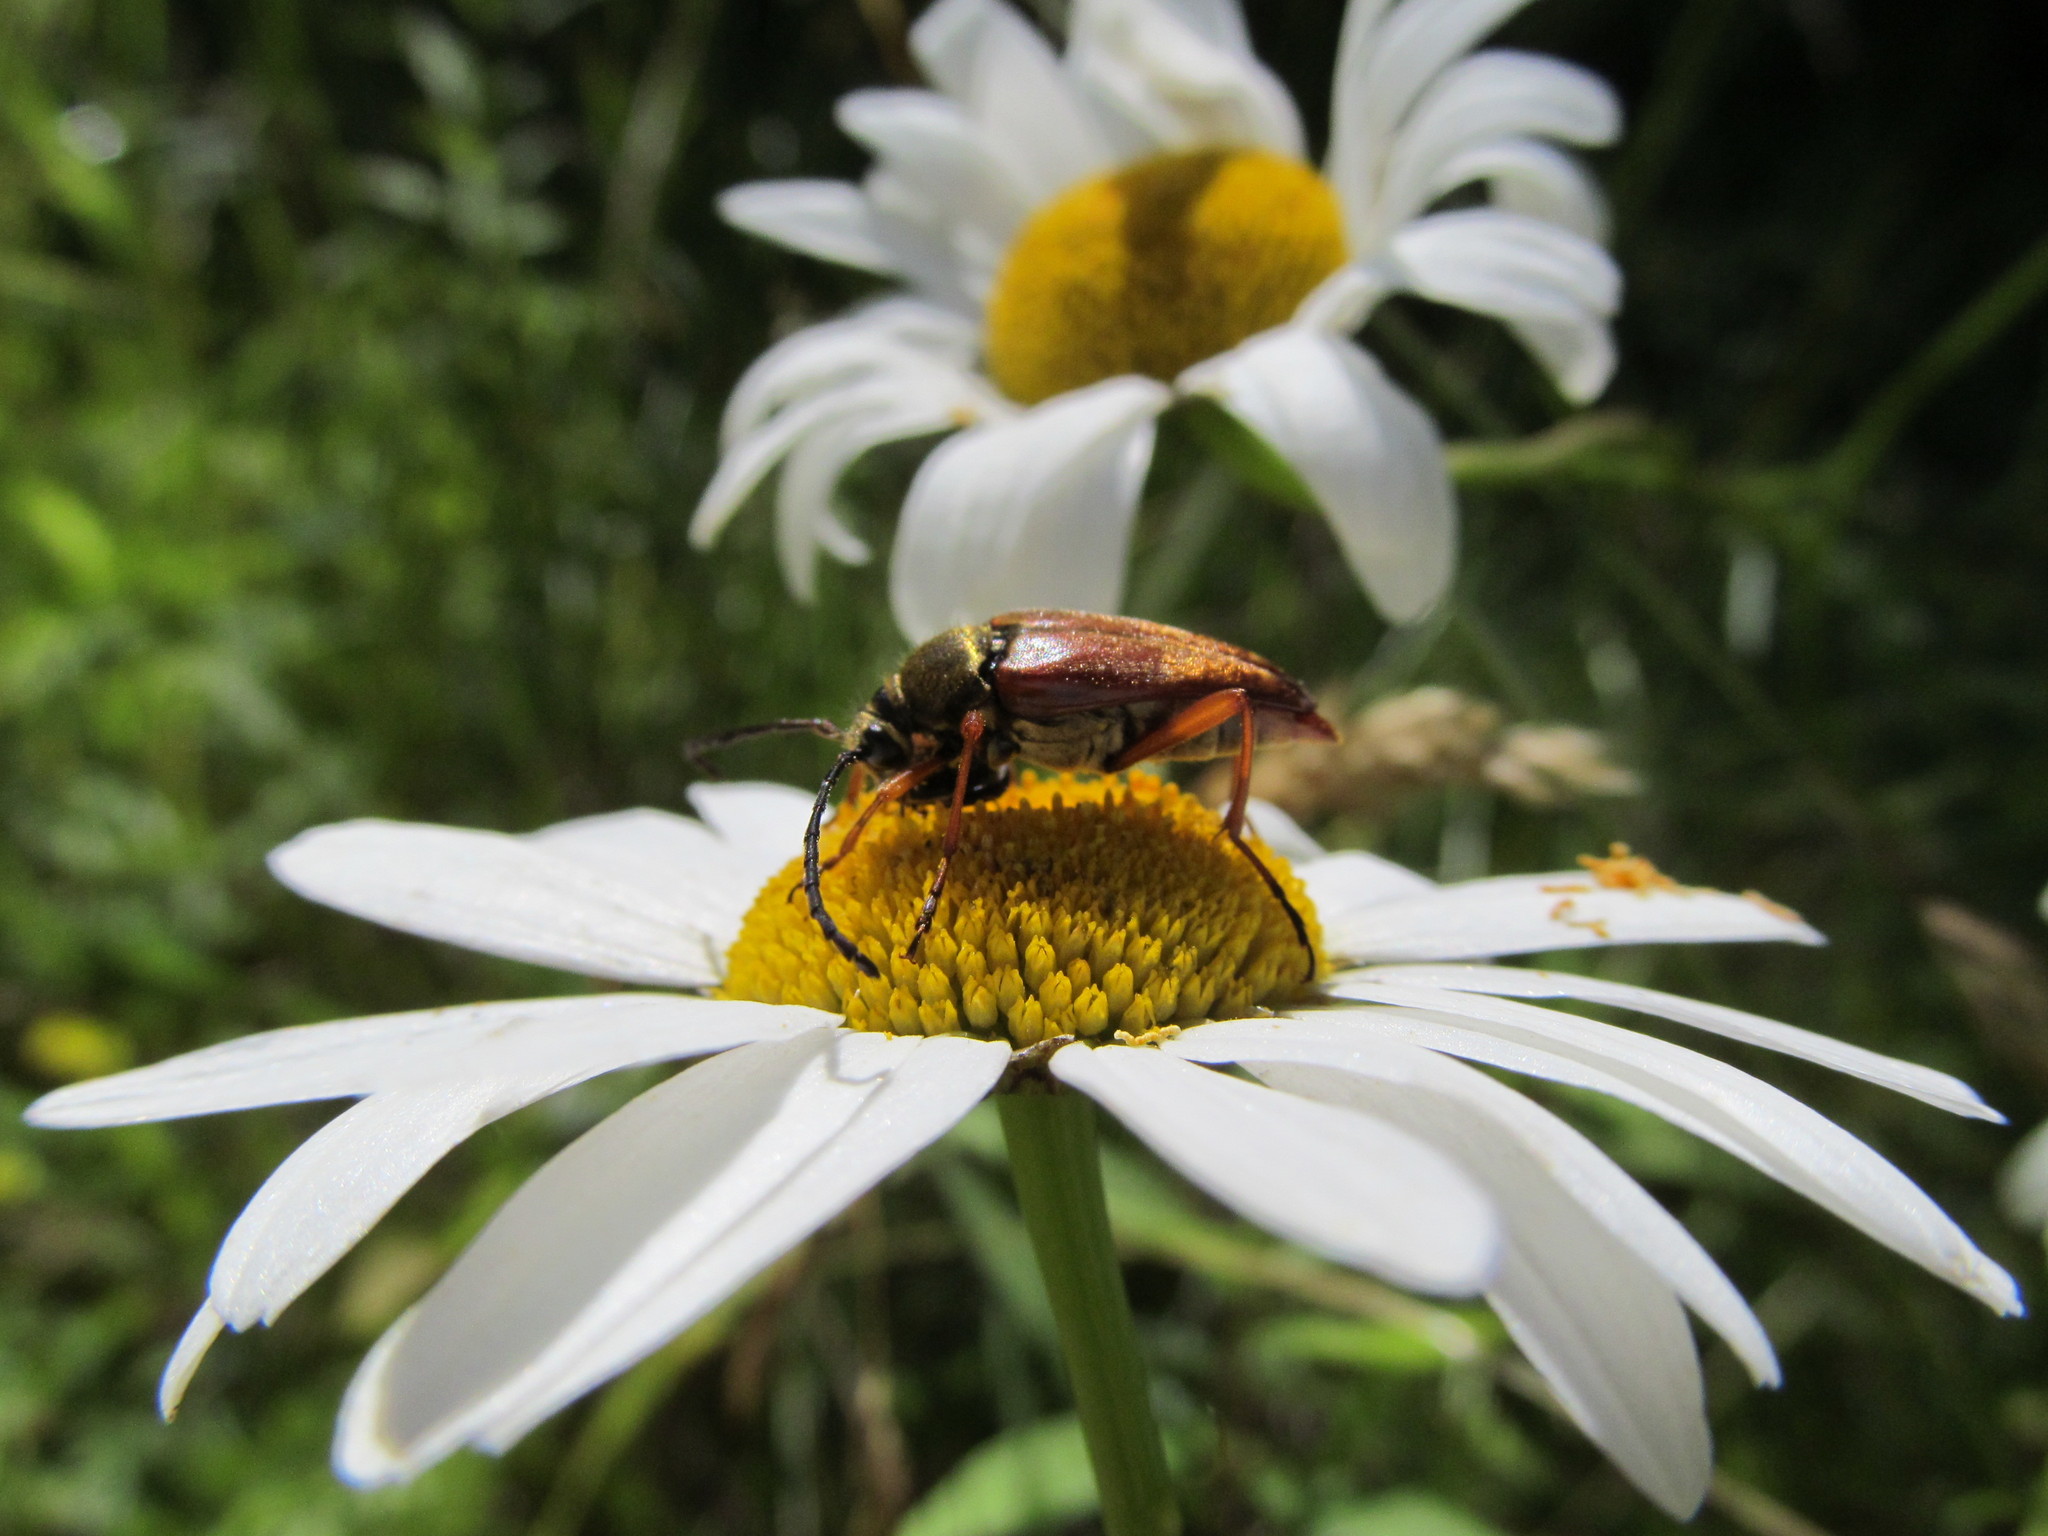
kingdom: Animalia
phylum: Arthropoda
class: Insecta
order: Coleoptera
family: Cerambycidae
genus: Typocerus
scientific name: Typocerus acuticauda
